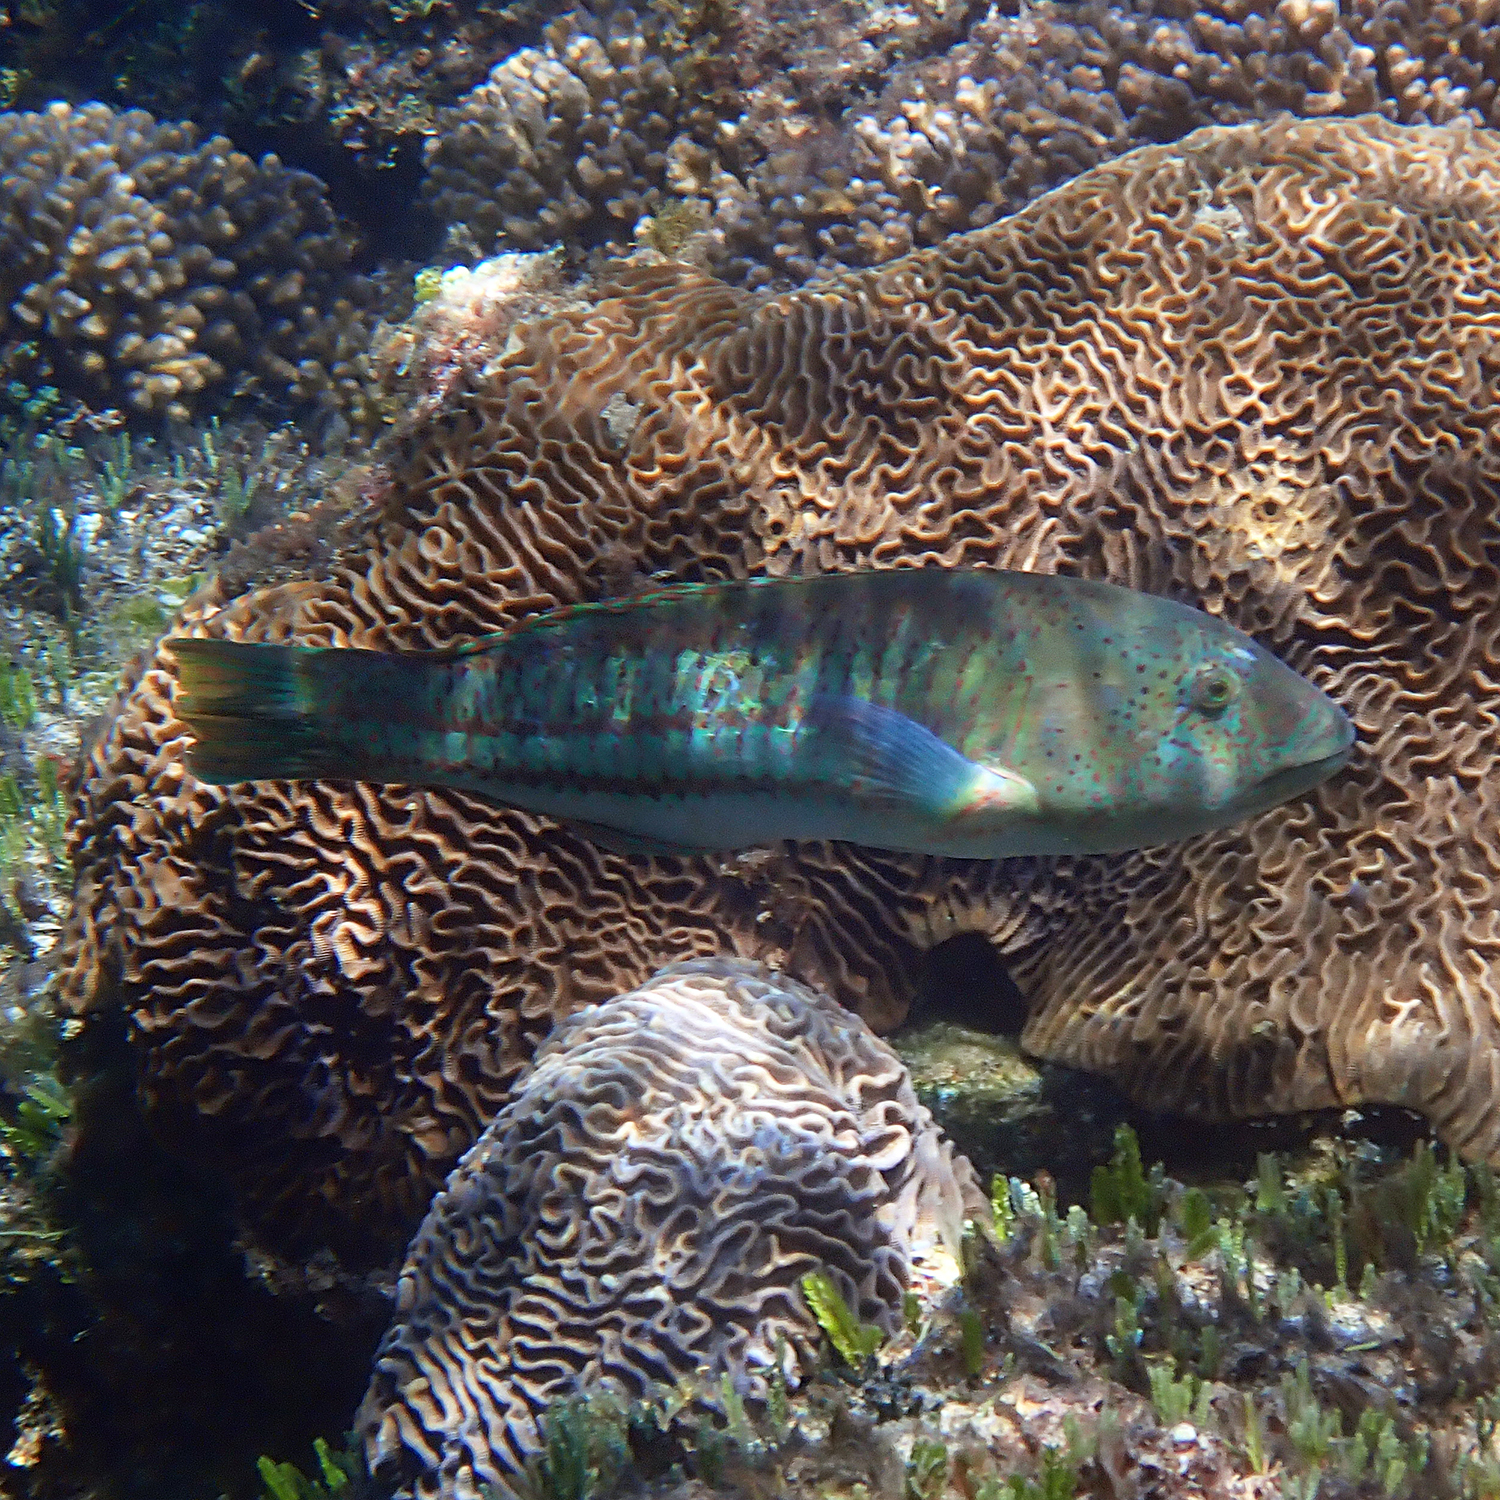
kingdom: Animalia
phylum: Chordata
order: Perciformes
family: Labridae
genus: Thalassoma
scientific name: Thalassoma purpureum
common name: Parrotfish
